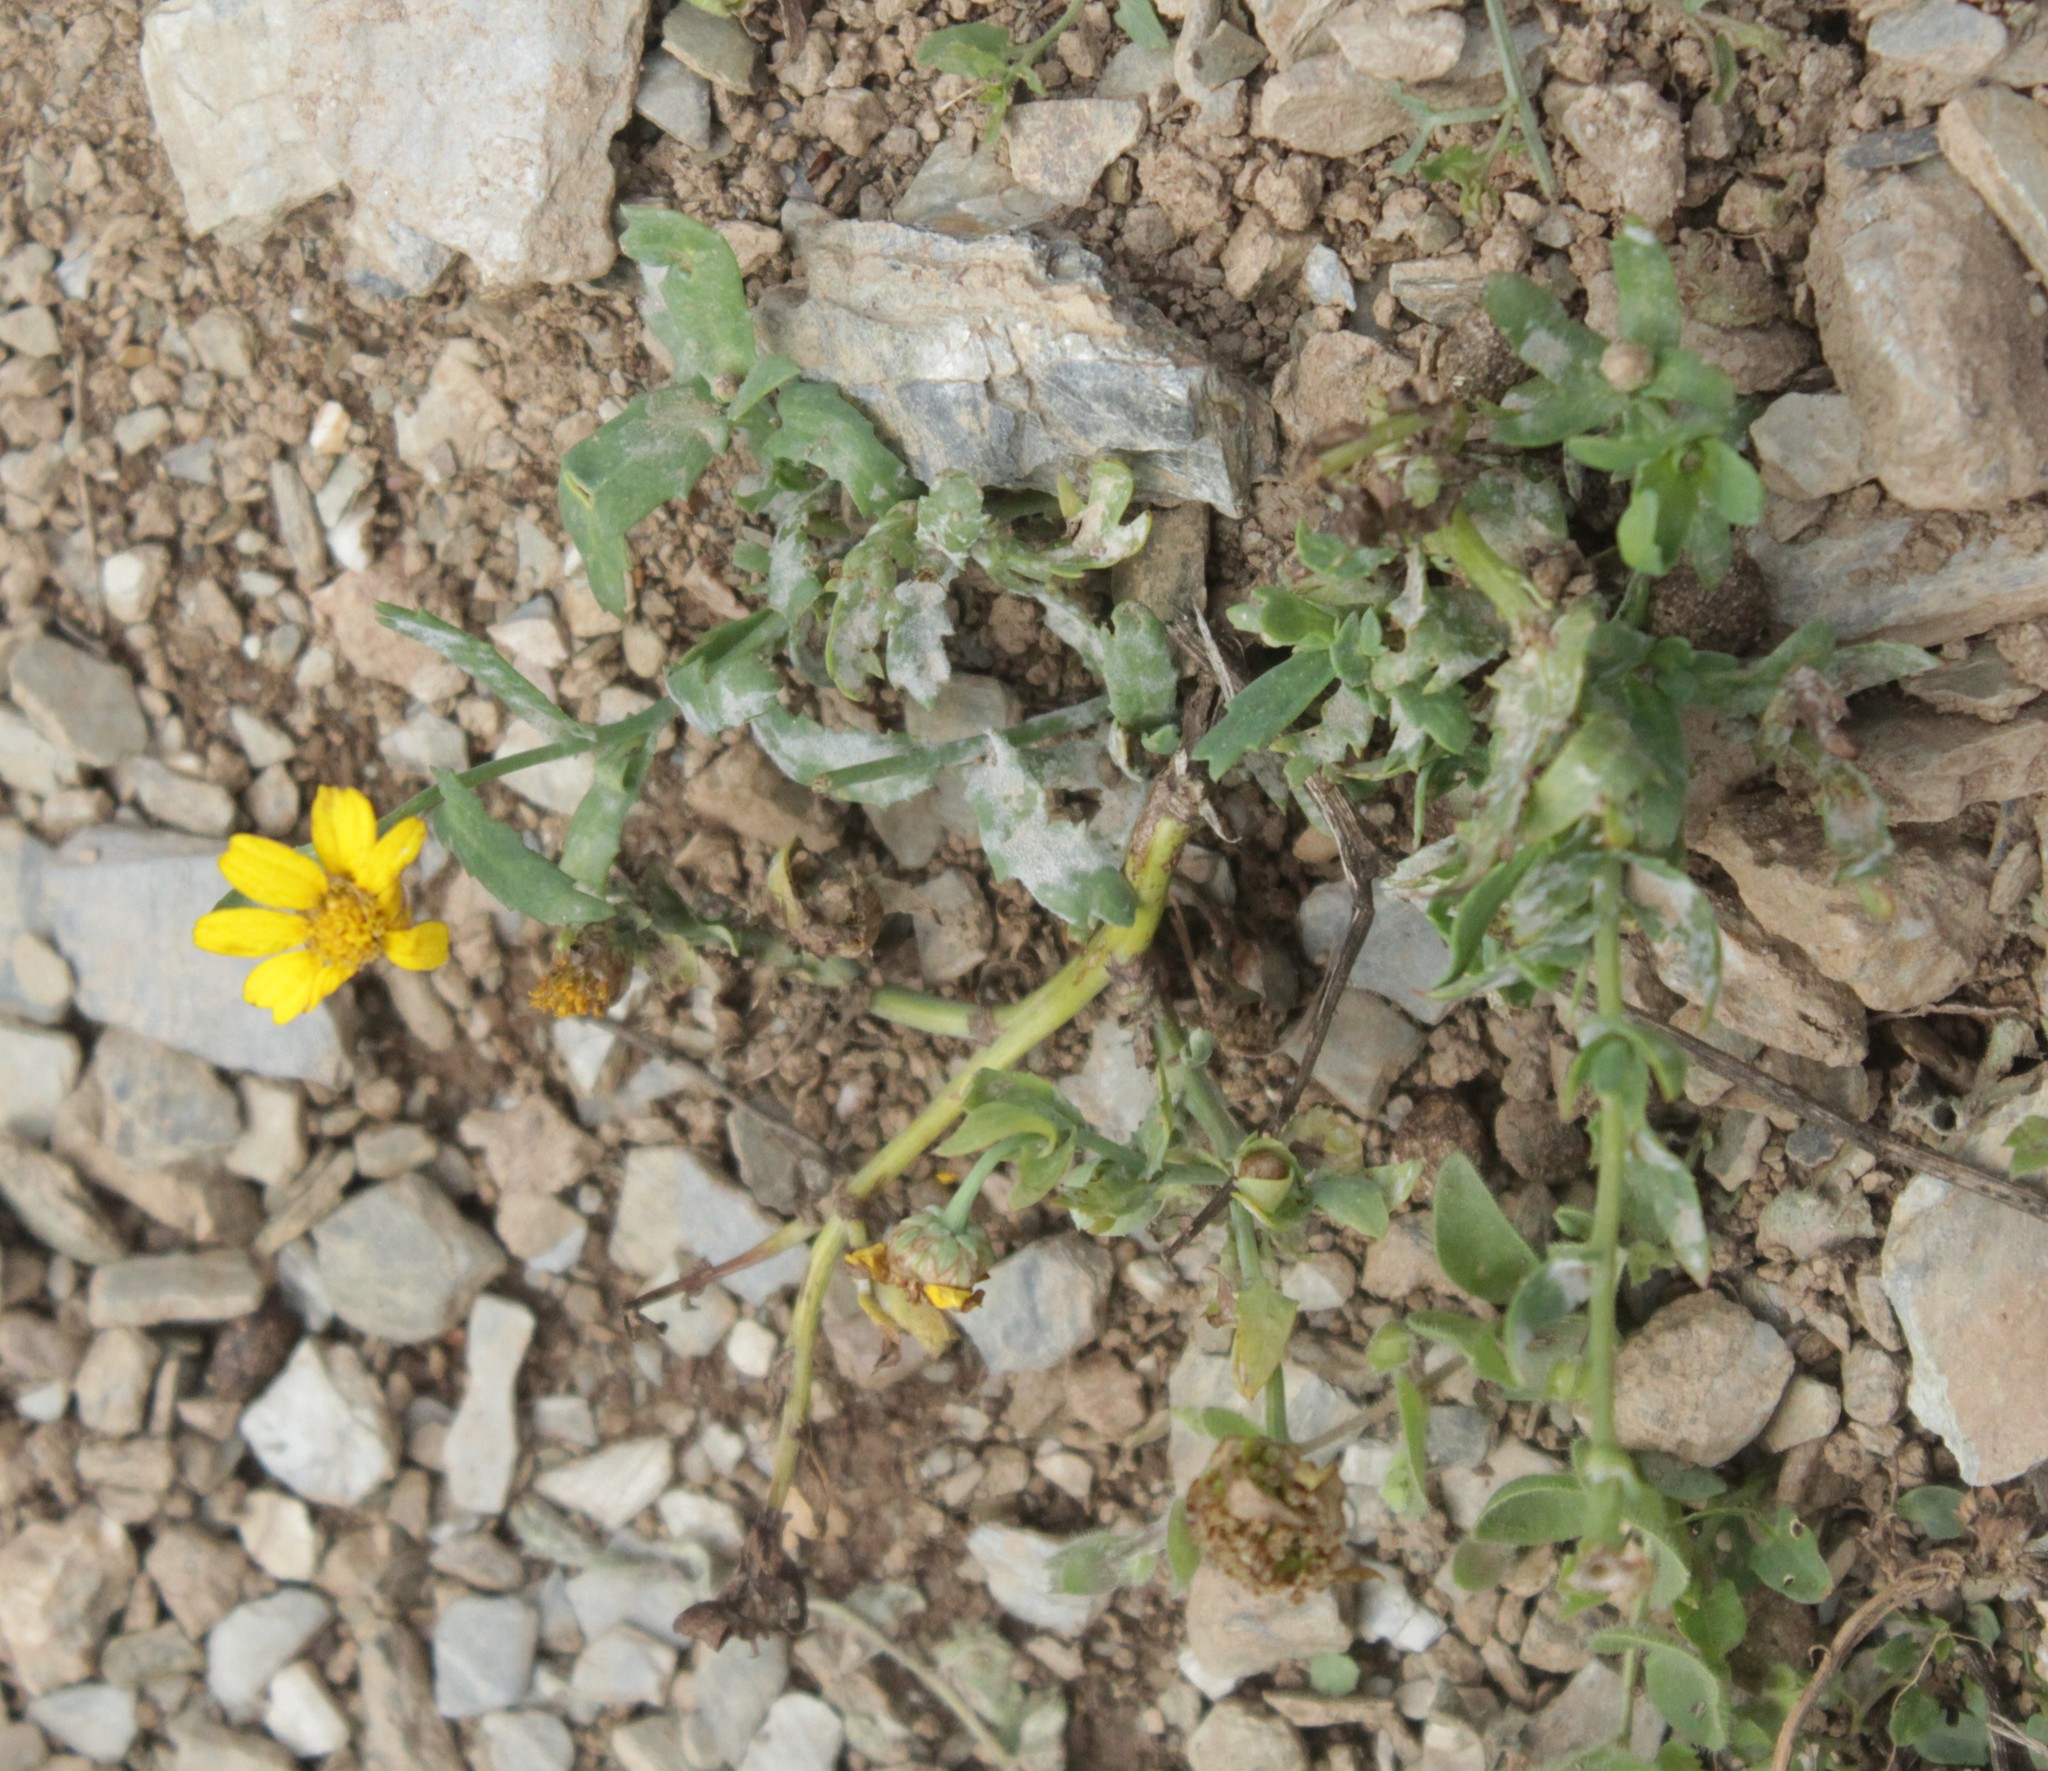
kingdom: Plantae
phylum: Tracheophyta
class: Magnoliopsida
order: Asterales
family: Asteraceae
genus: Glebionis
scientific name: Glebionis segetum
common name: Corndaisy
